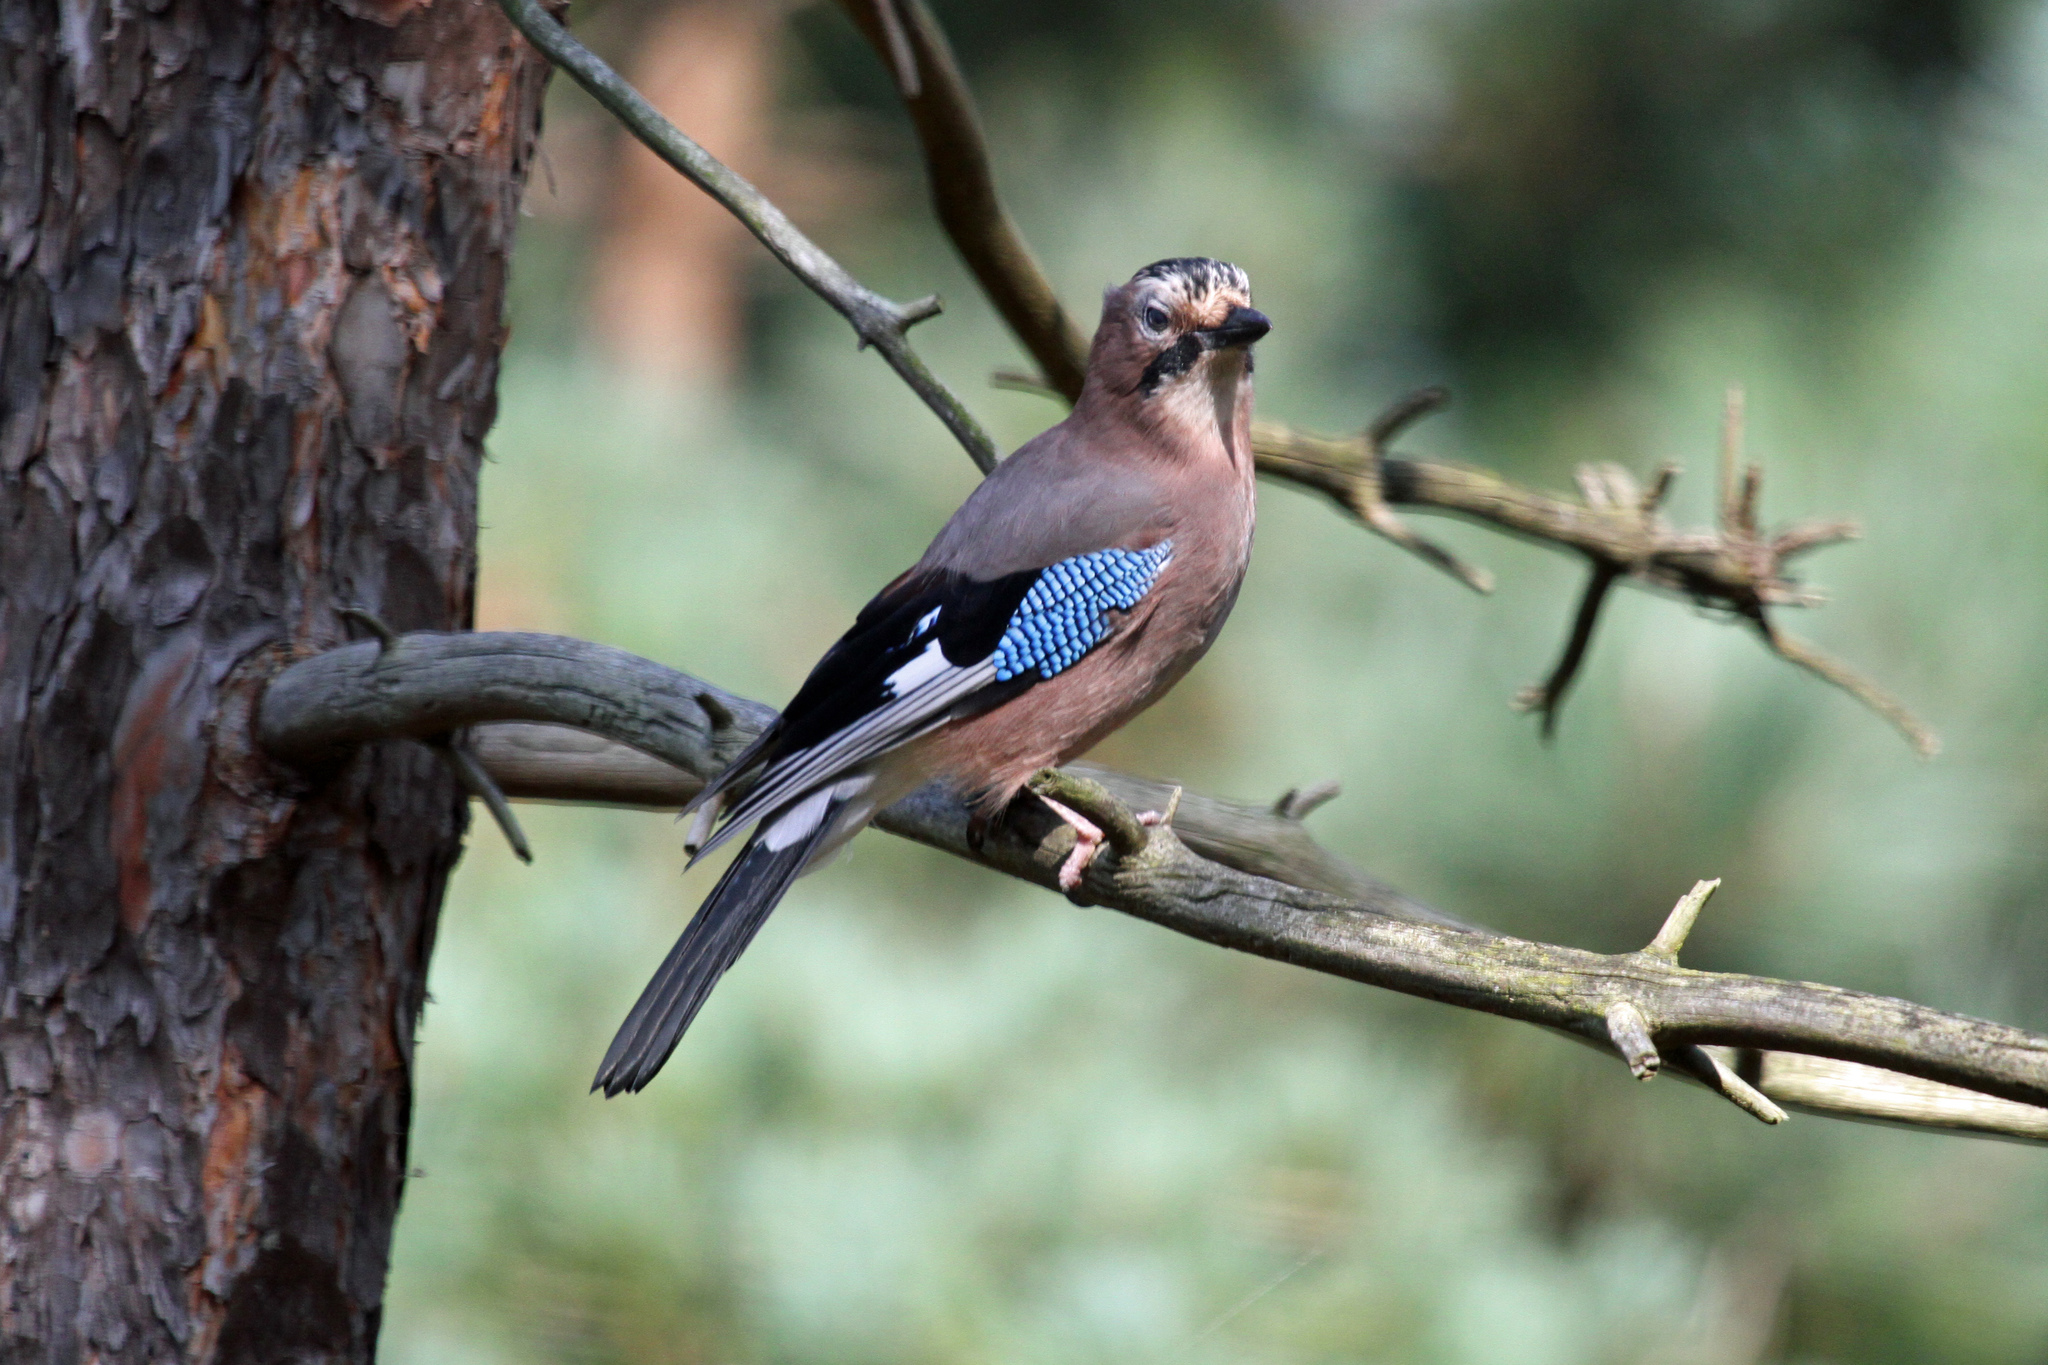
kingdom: Animalia
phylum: Chordata
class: Aves
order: Passeriformes
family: Corvidae
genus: Garrulus
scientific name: Garrulus glandarius
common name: Eurasian jay
